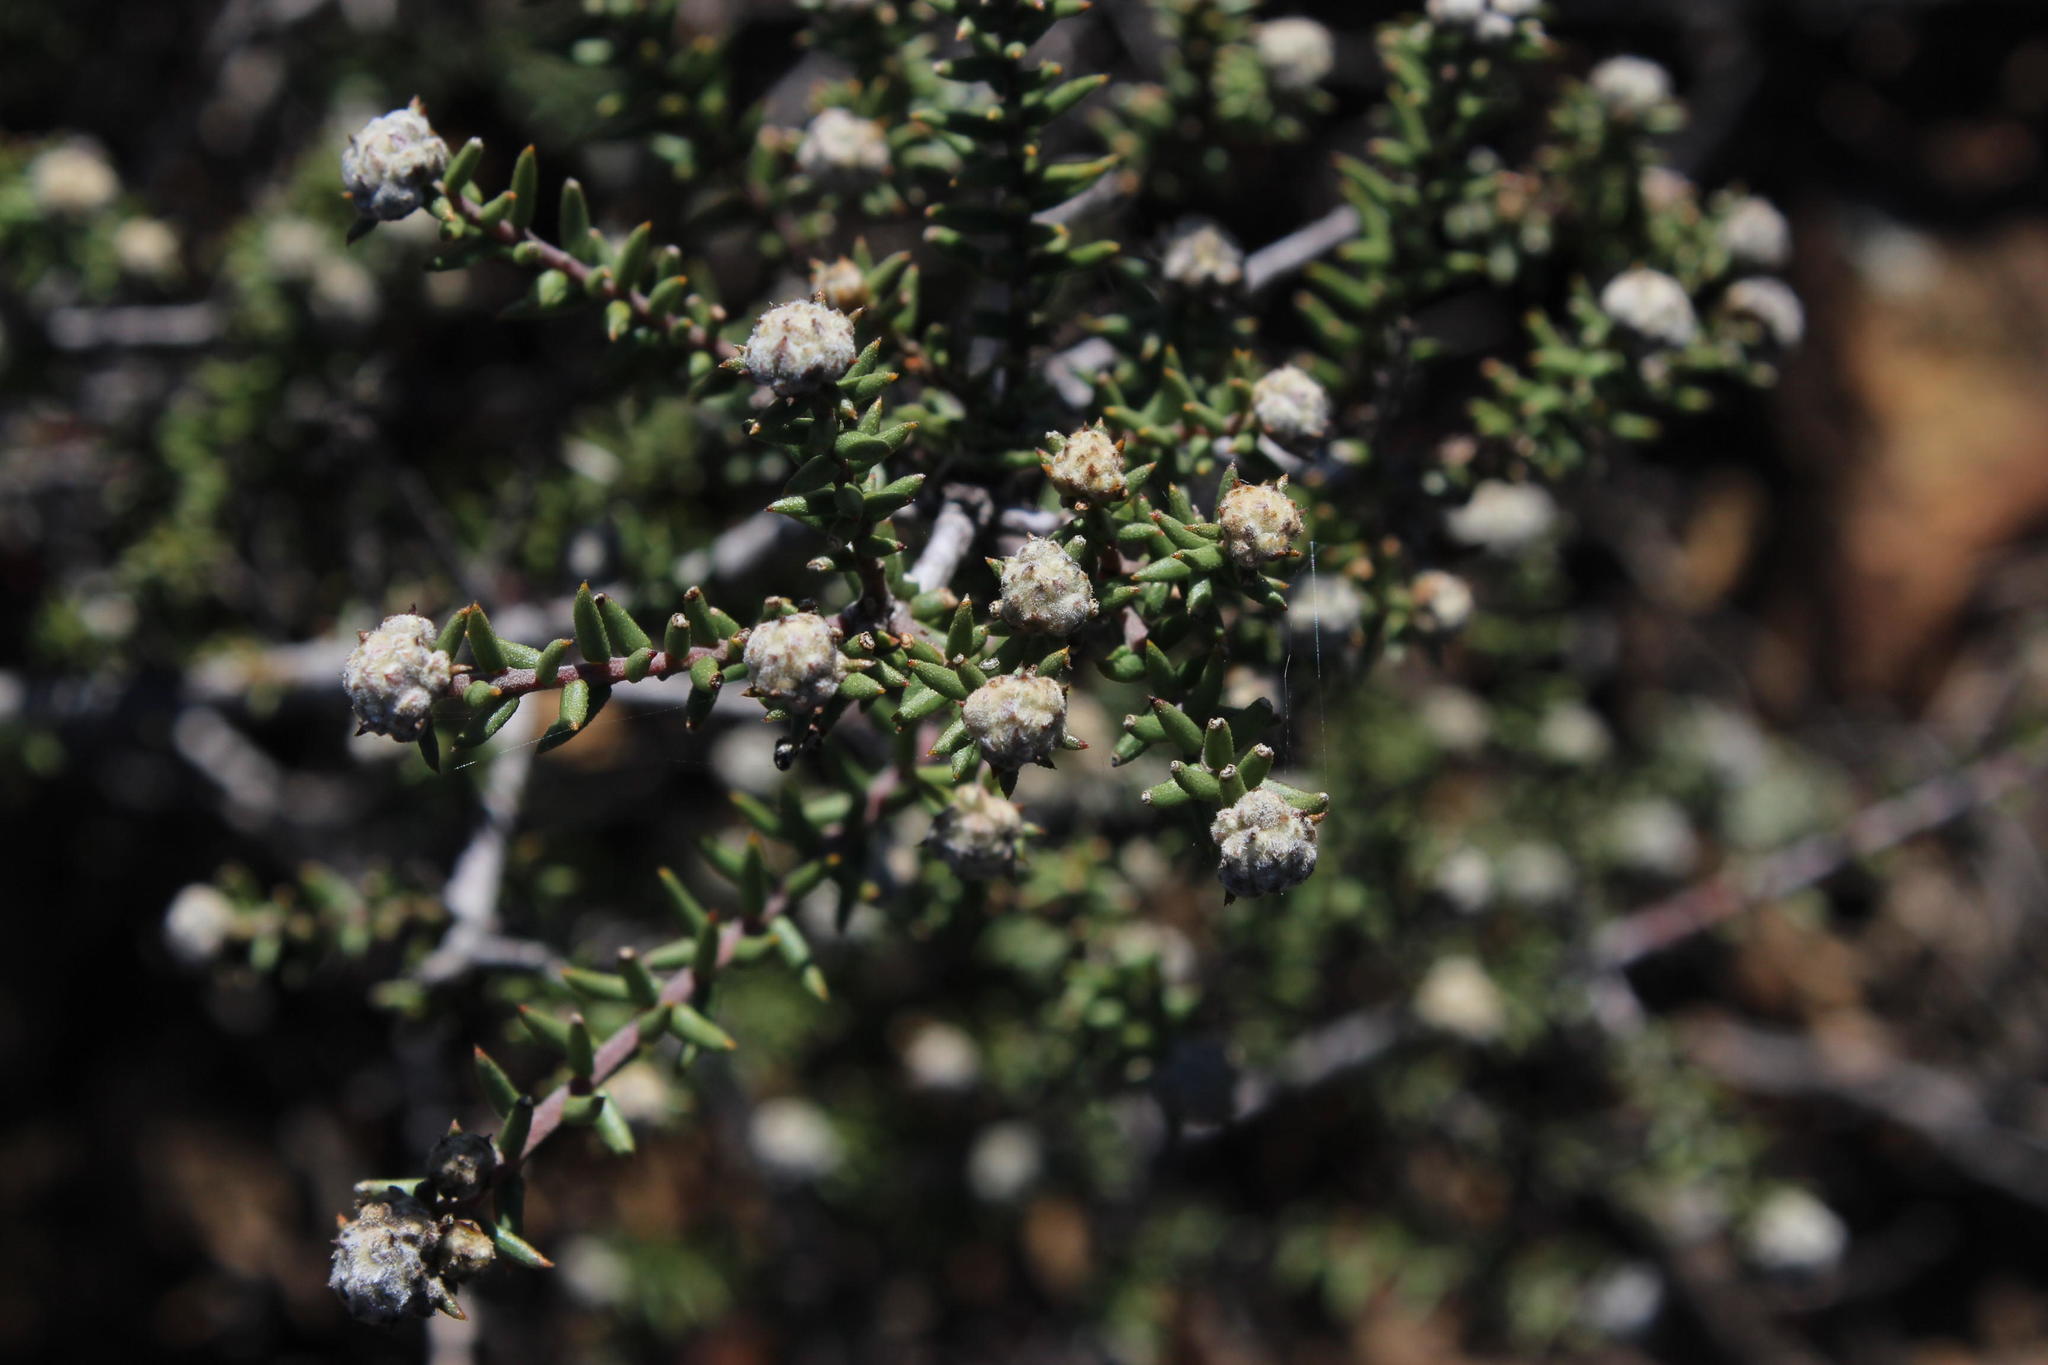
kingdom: Plantae
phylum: Tracheophyta
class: Magnoliopsida
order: Rosales
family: Rhamnaceae
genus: Phylica
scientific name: Phylica rogersii
